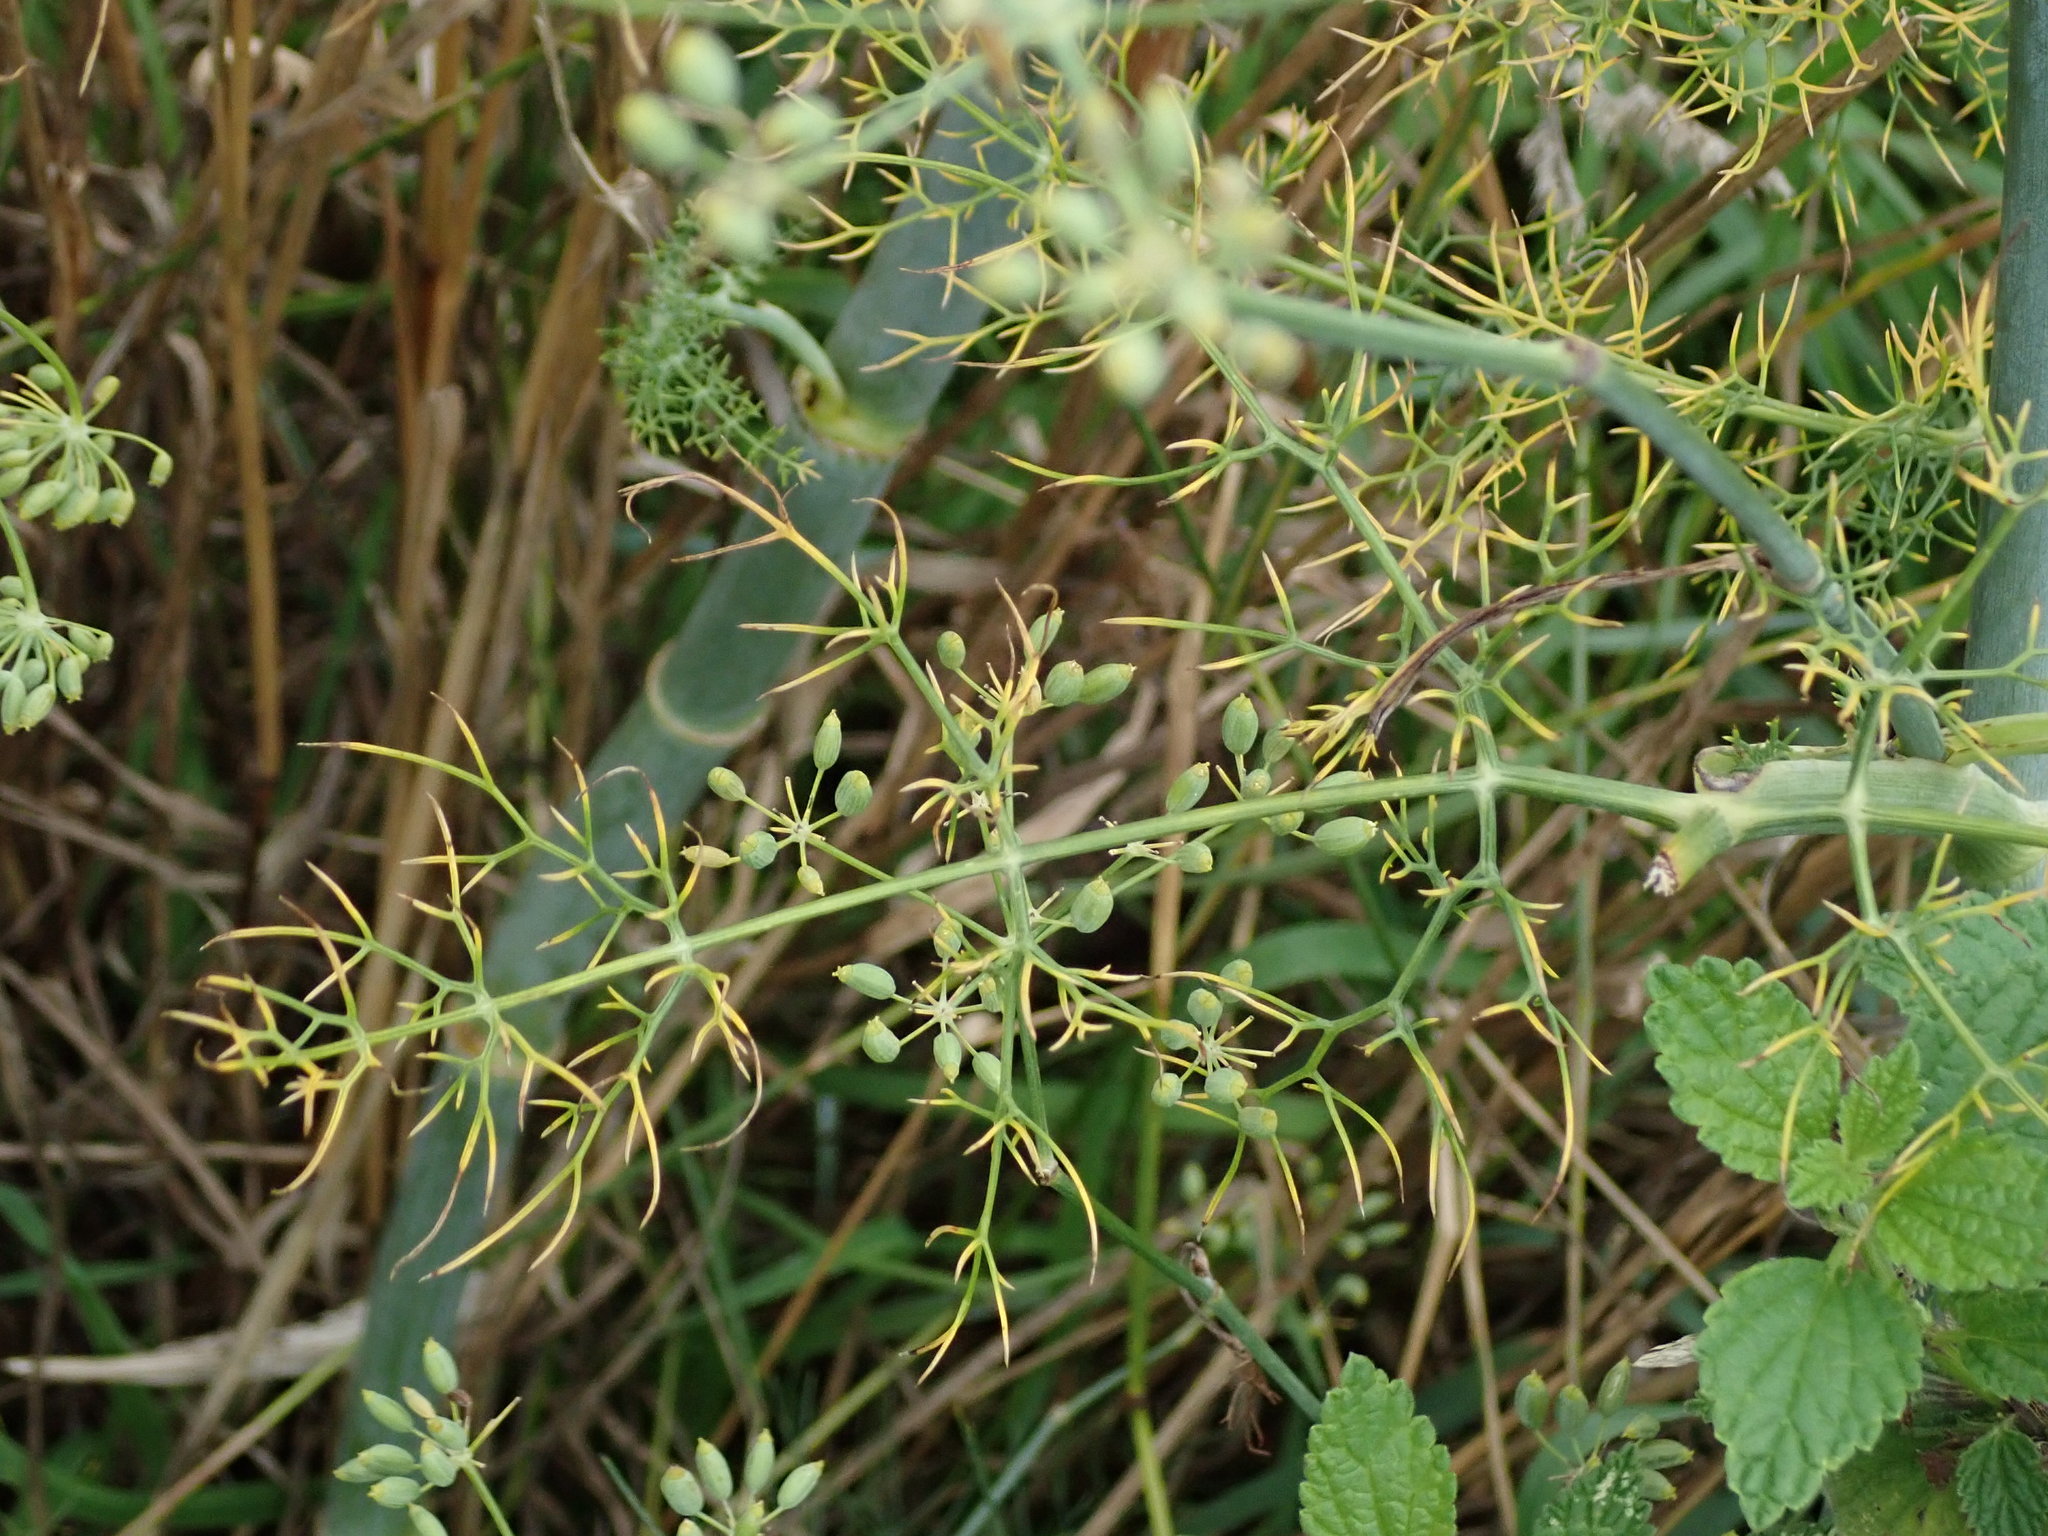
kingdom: Plantae
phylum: Tracheophyta
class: Magnoliopsida
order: Apiales
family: Apiaceae
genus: Foeniculum
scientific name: Foeniculum vulgare
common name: Fennel
